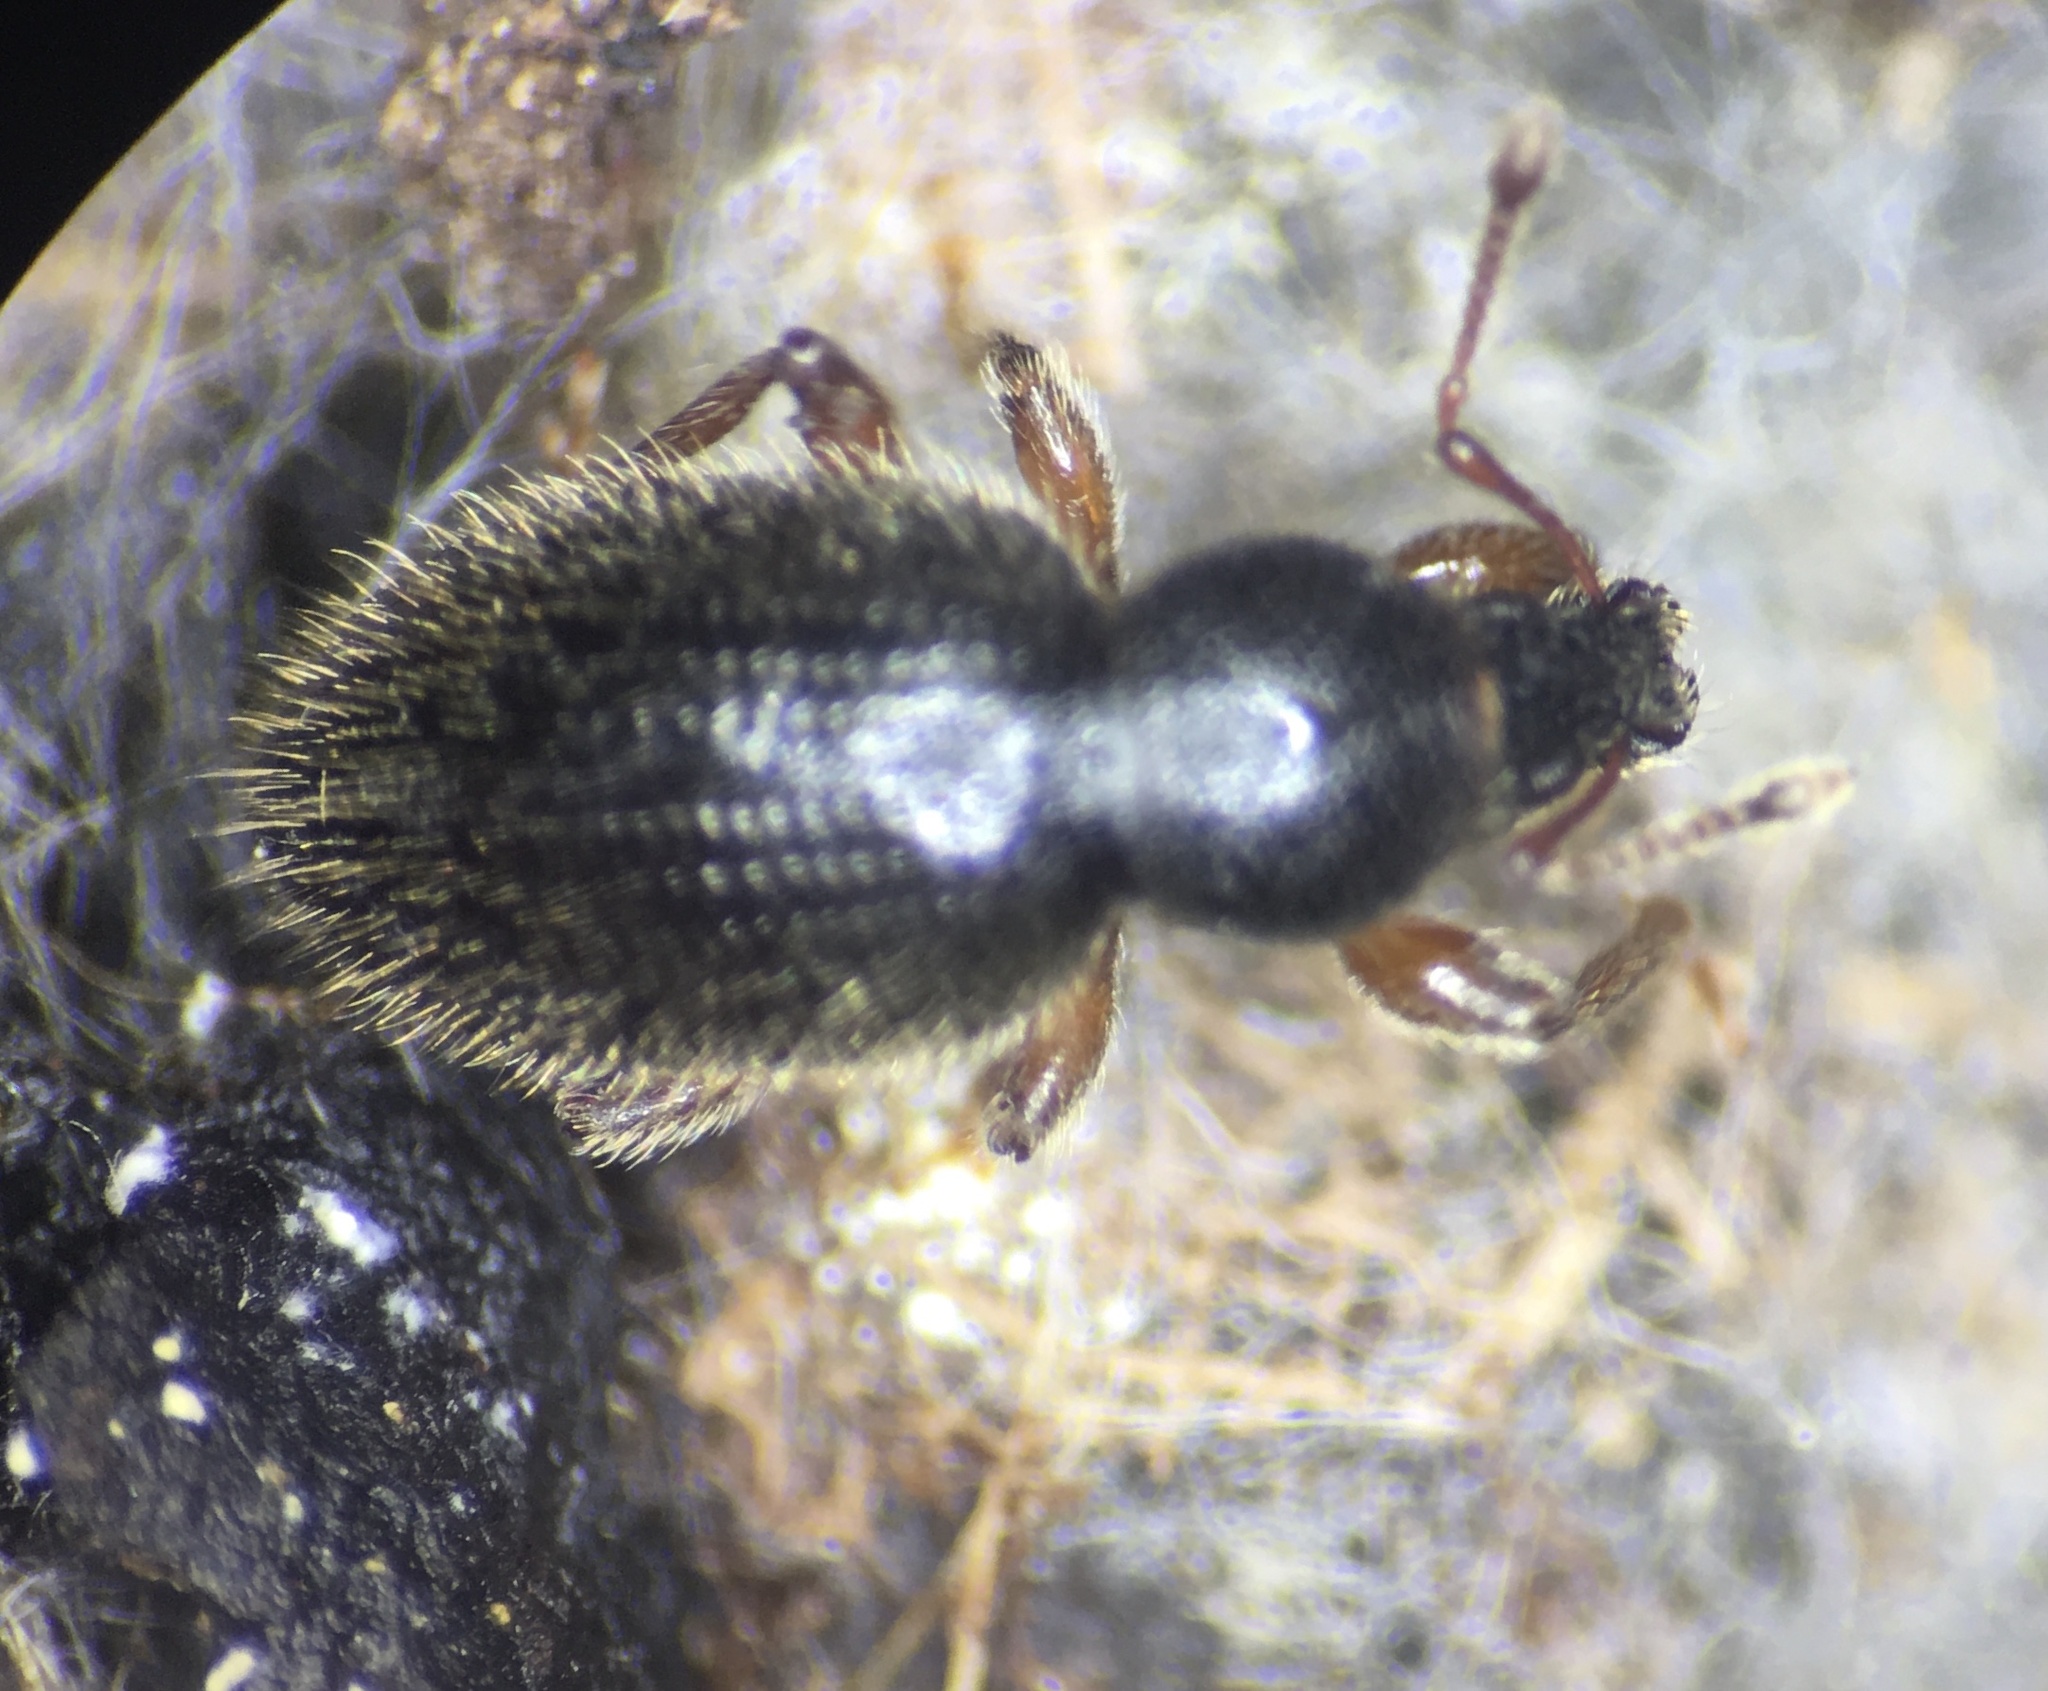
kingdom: Animalia
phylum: Arthropoda
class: Insecta
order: Coleoptera
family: Curculionidae
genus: Exomias
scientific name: Exomias pellucidus
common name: Hairy spider weevil
